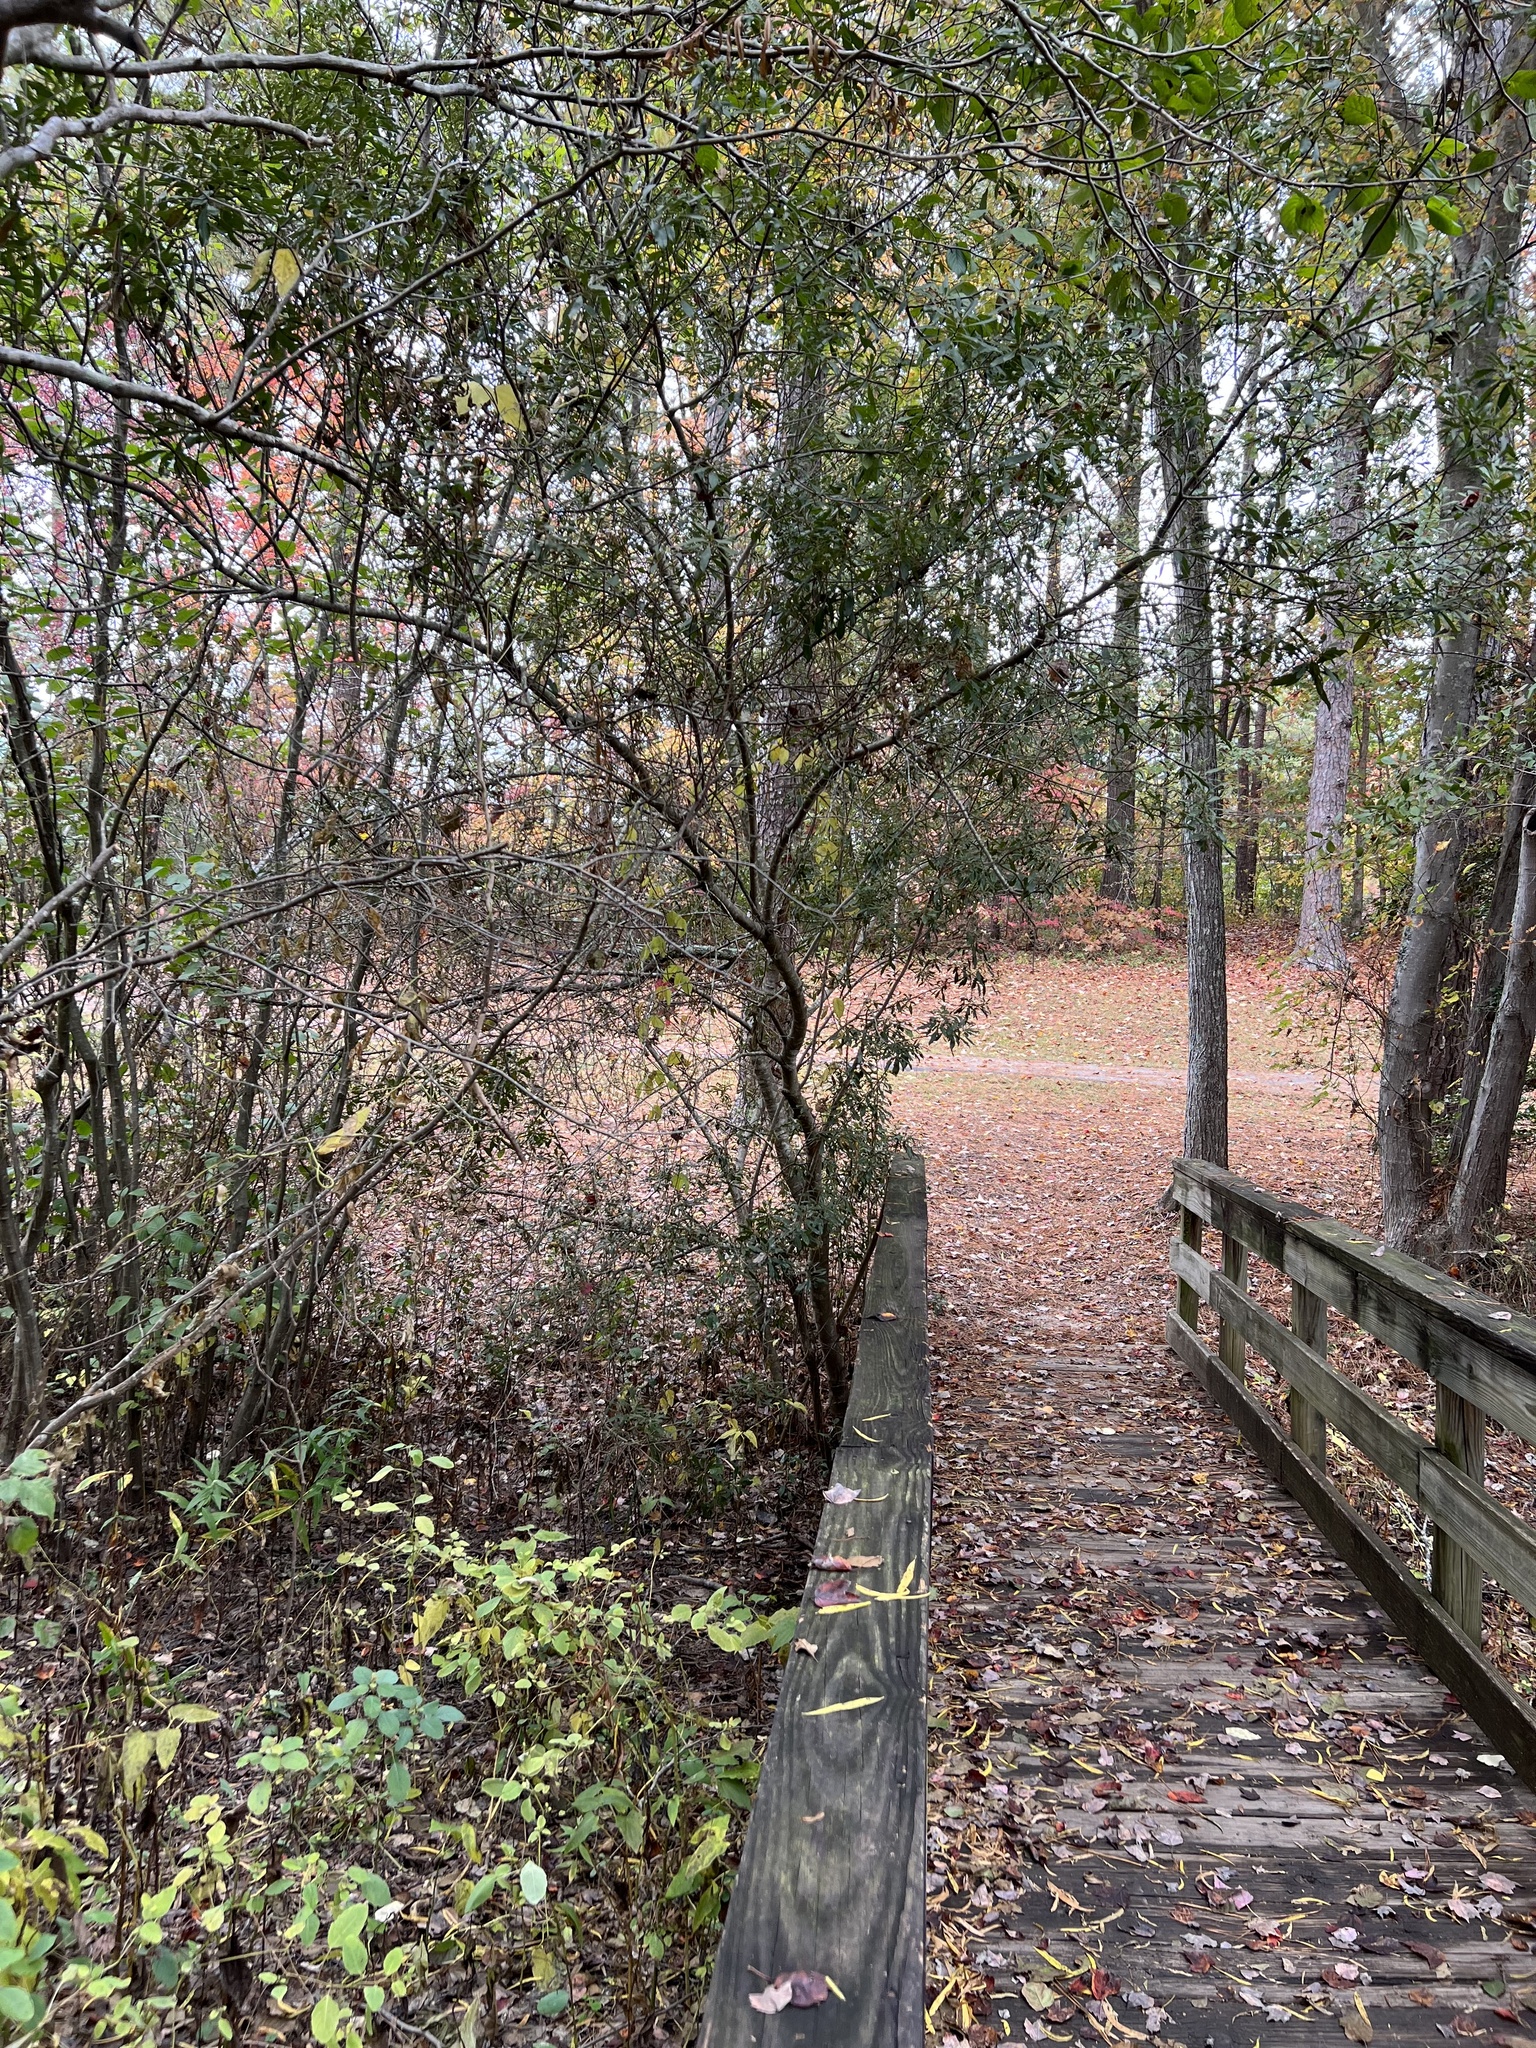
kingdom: Plantae
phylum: Tracheophyta
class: Magnoliopsida
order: Fagales
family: Myricaceae
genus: Morella
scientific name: Morella cerifera
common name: Wax myrtle
